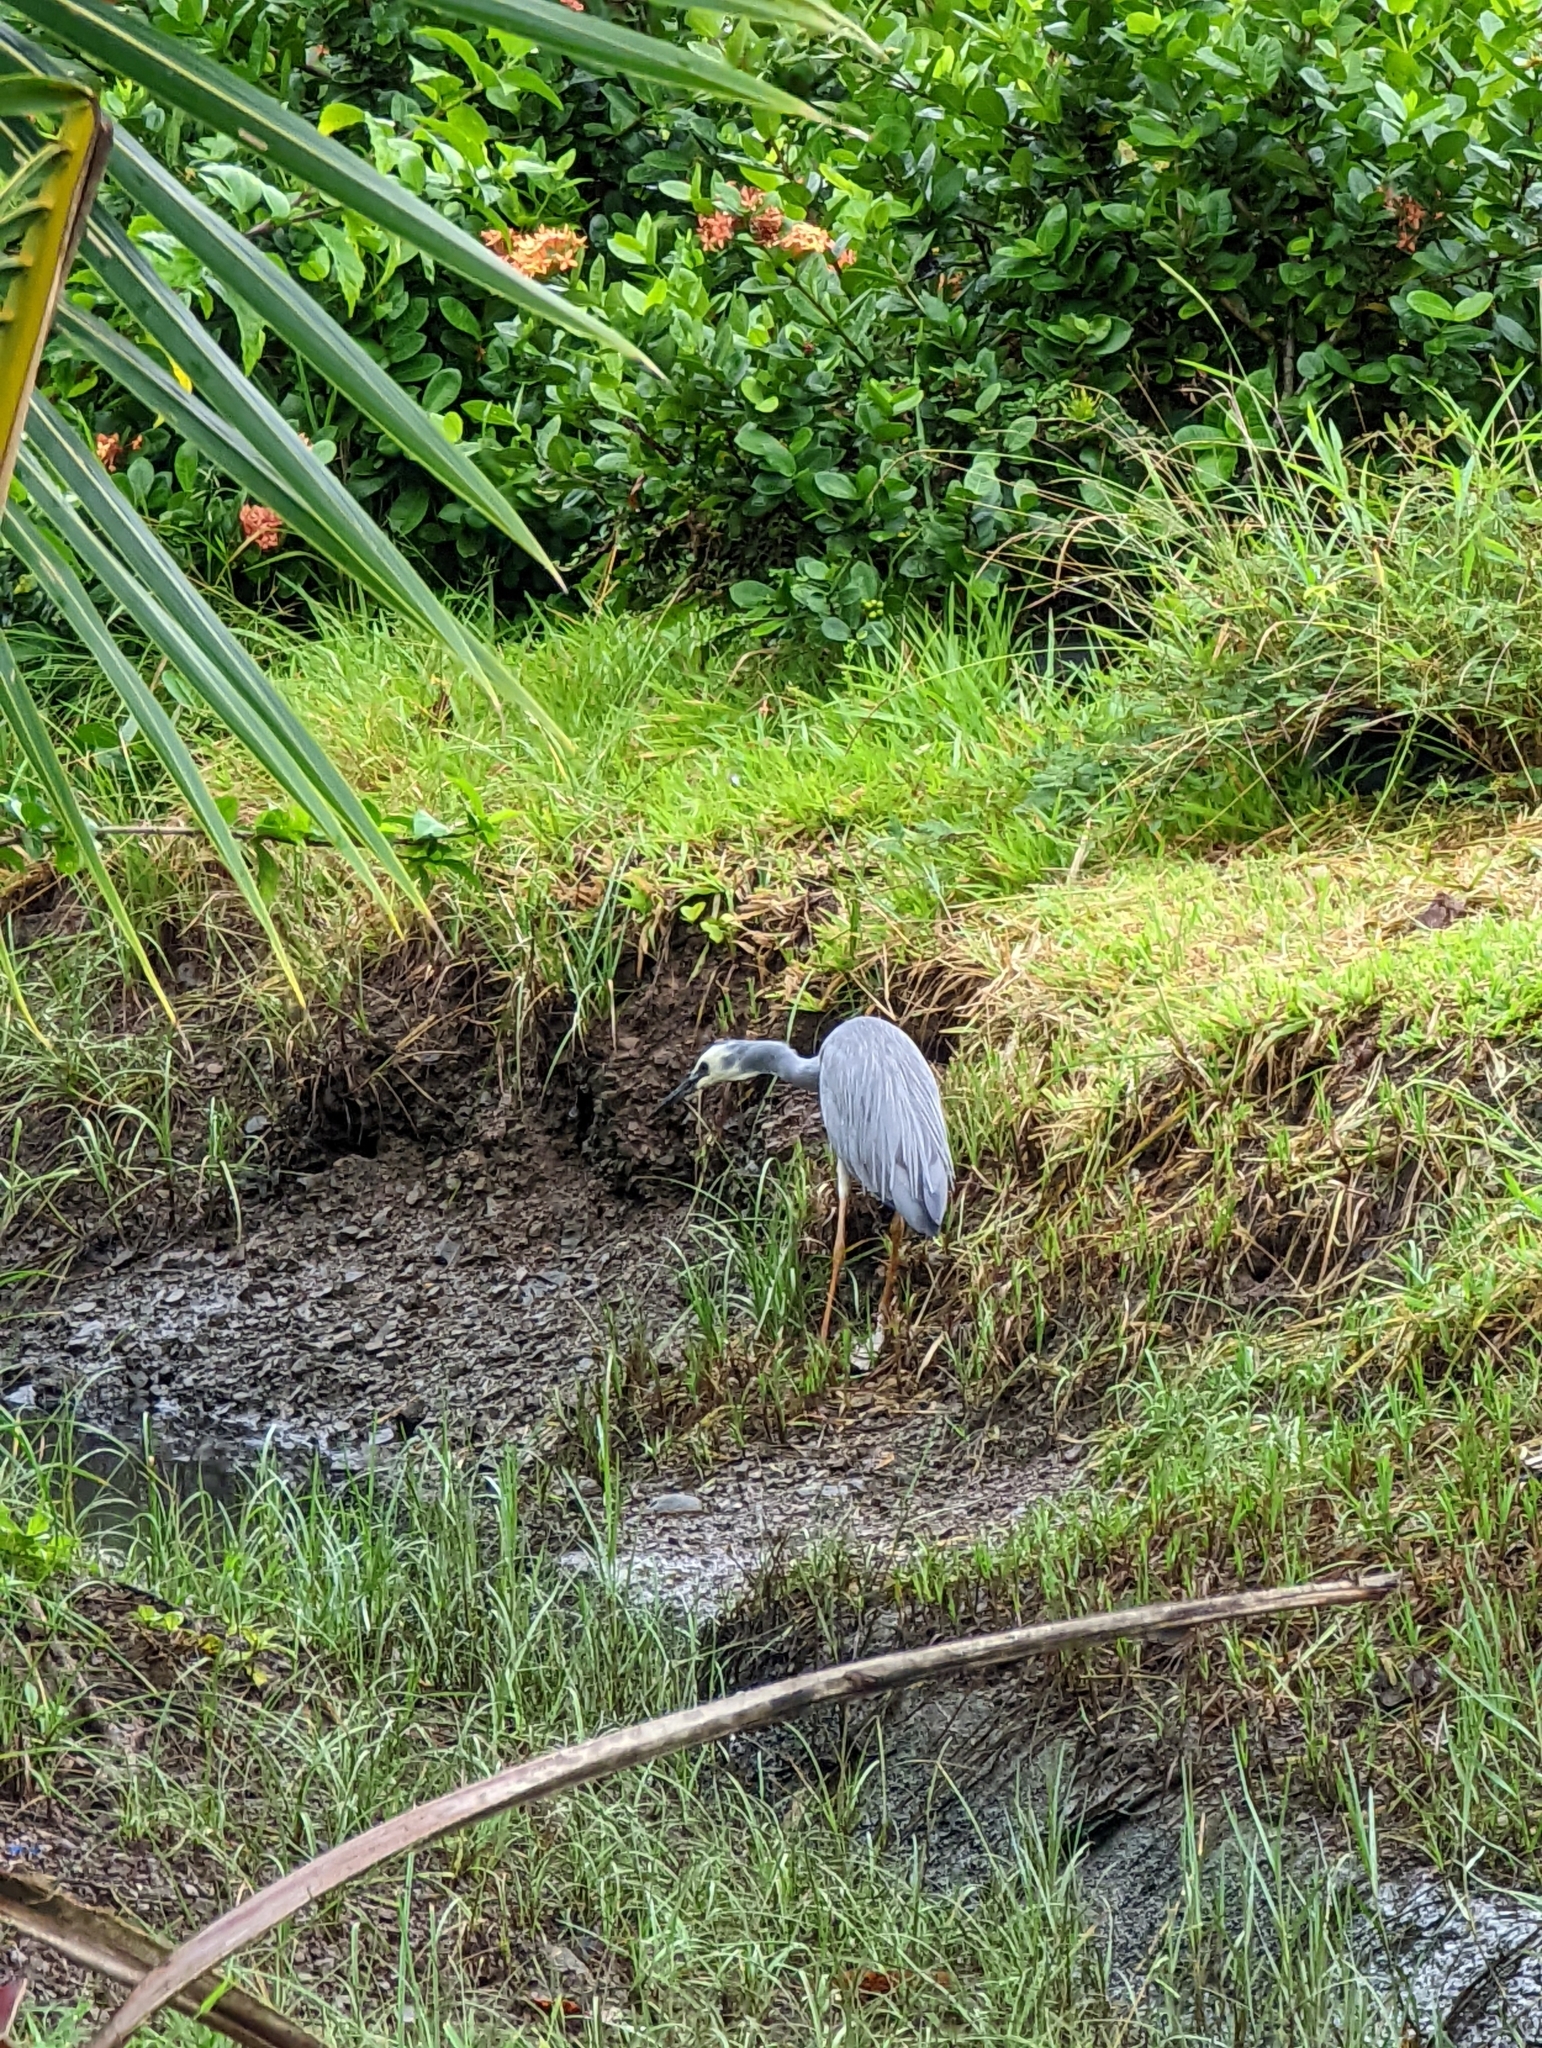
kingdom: Animalia
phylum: Chordata
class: Aves
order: Pelecaniformes
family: Ardeidae
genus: Egretta
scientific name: Egretta novaehollandiae
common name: White-faced heron
